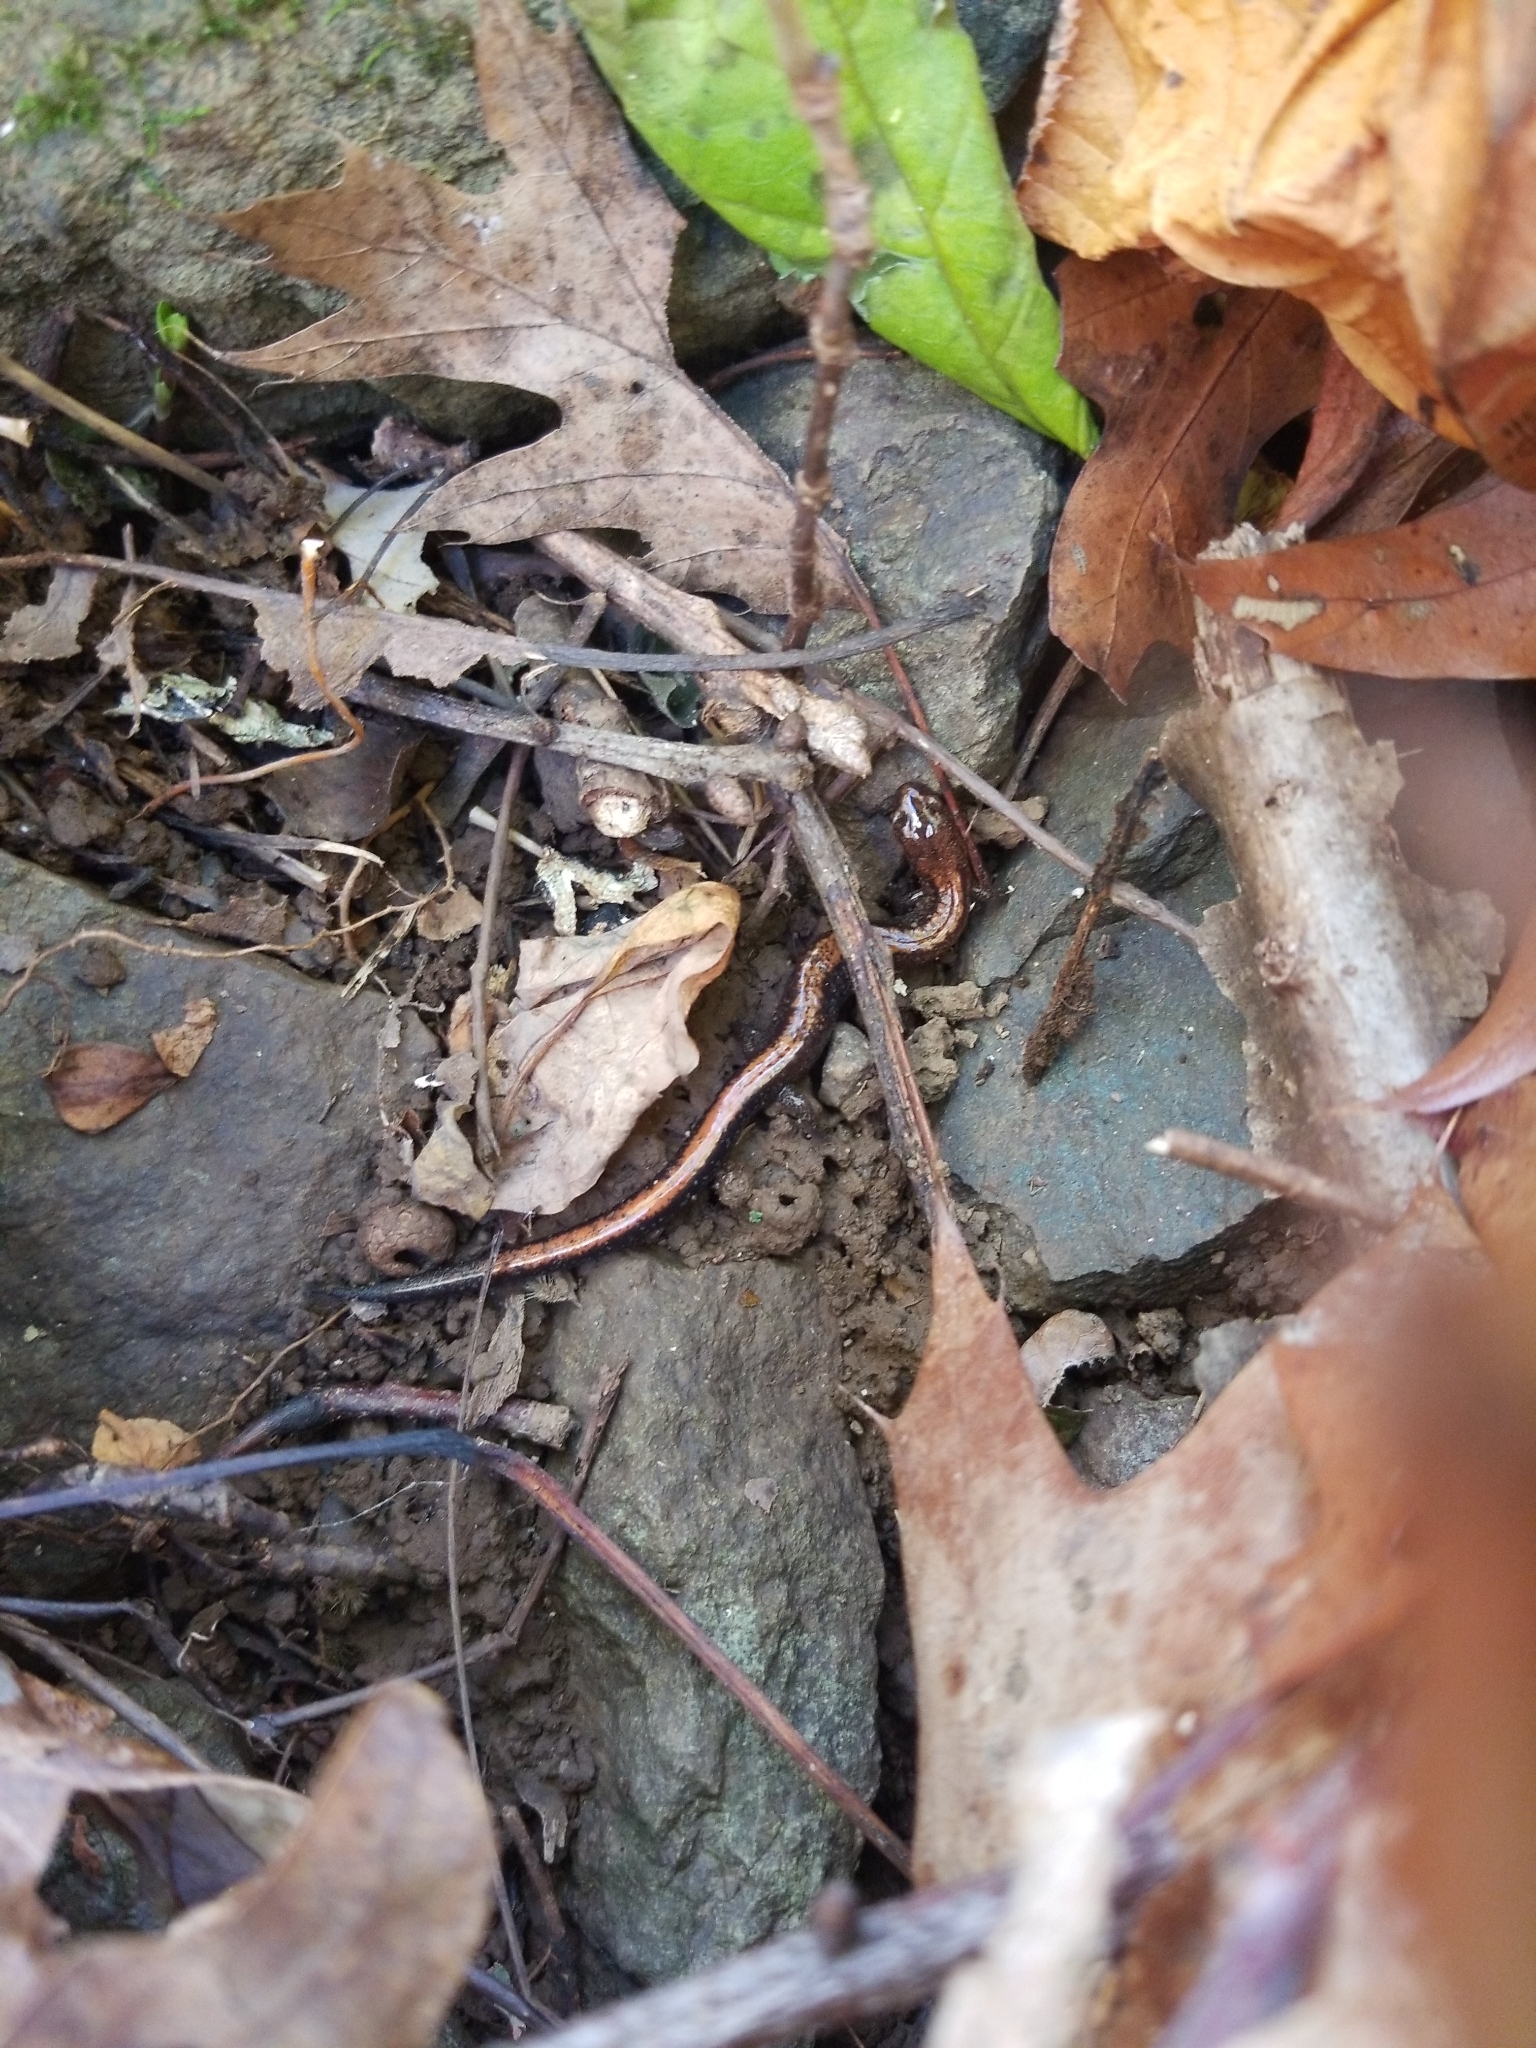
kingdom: Animalia
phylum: Chordata
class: Amphibia
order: Caudata
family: Plethodontidae
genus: Plethodon
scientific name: Plethodon cinereus
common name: Redback salamander
